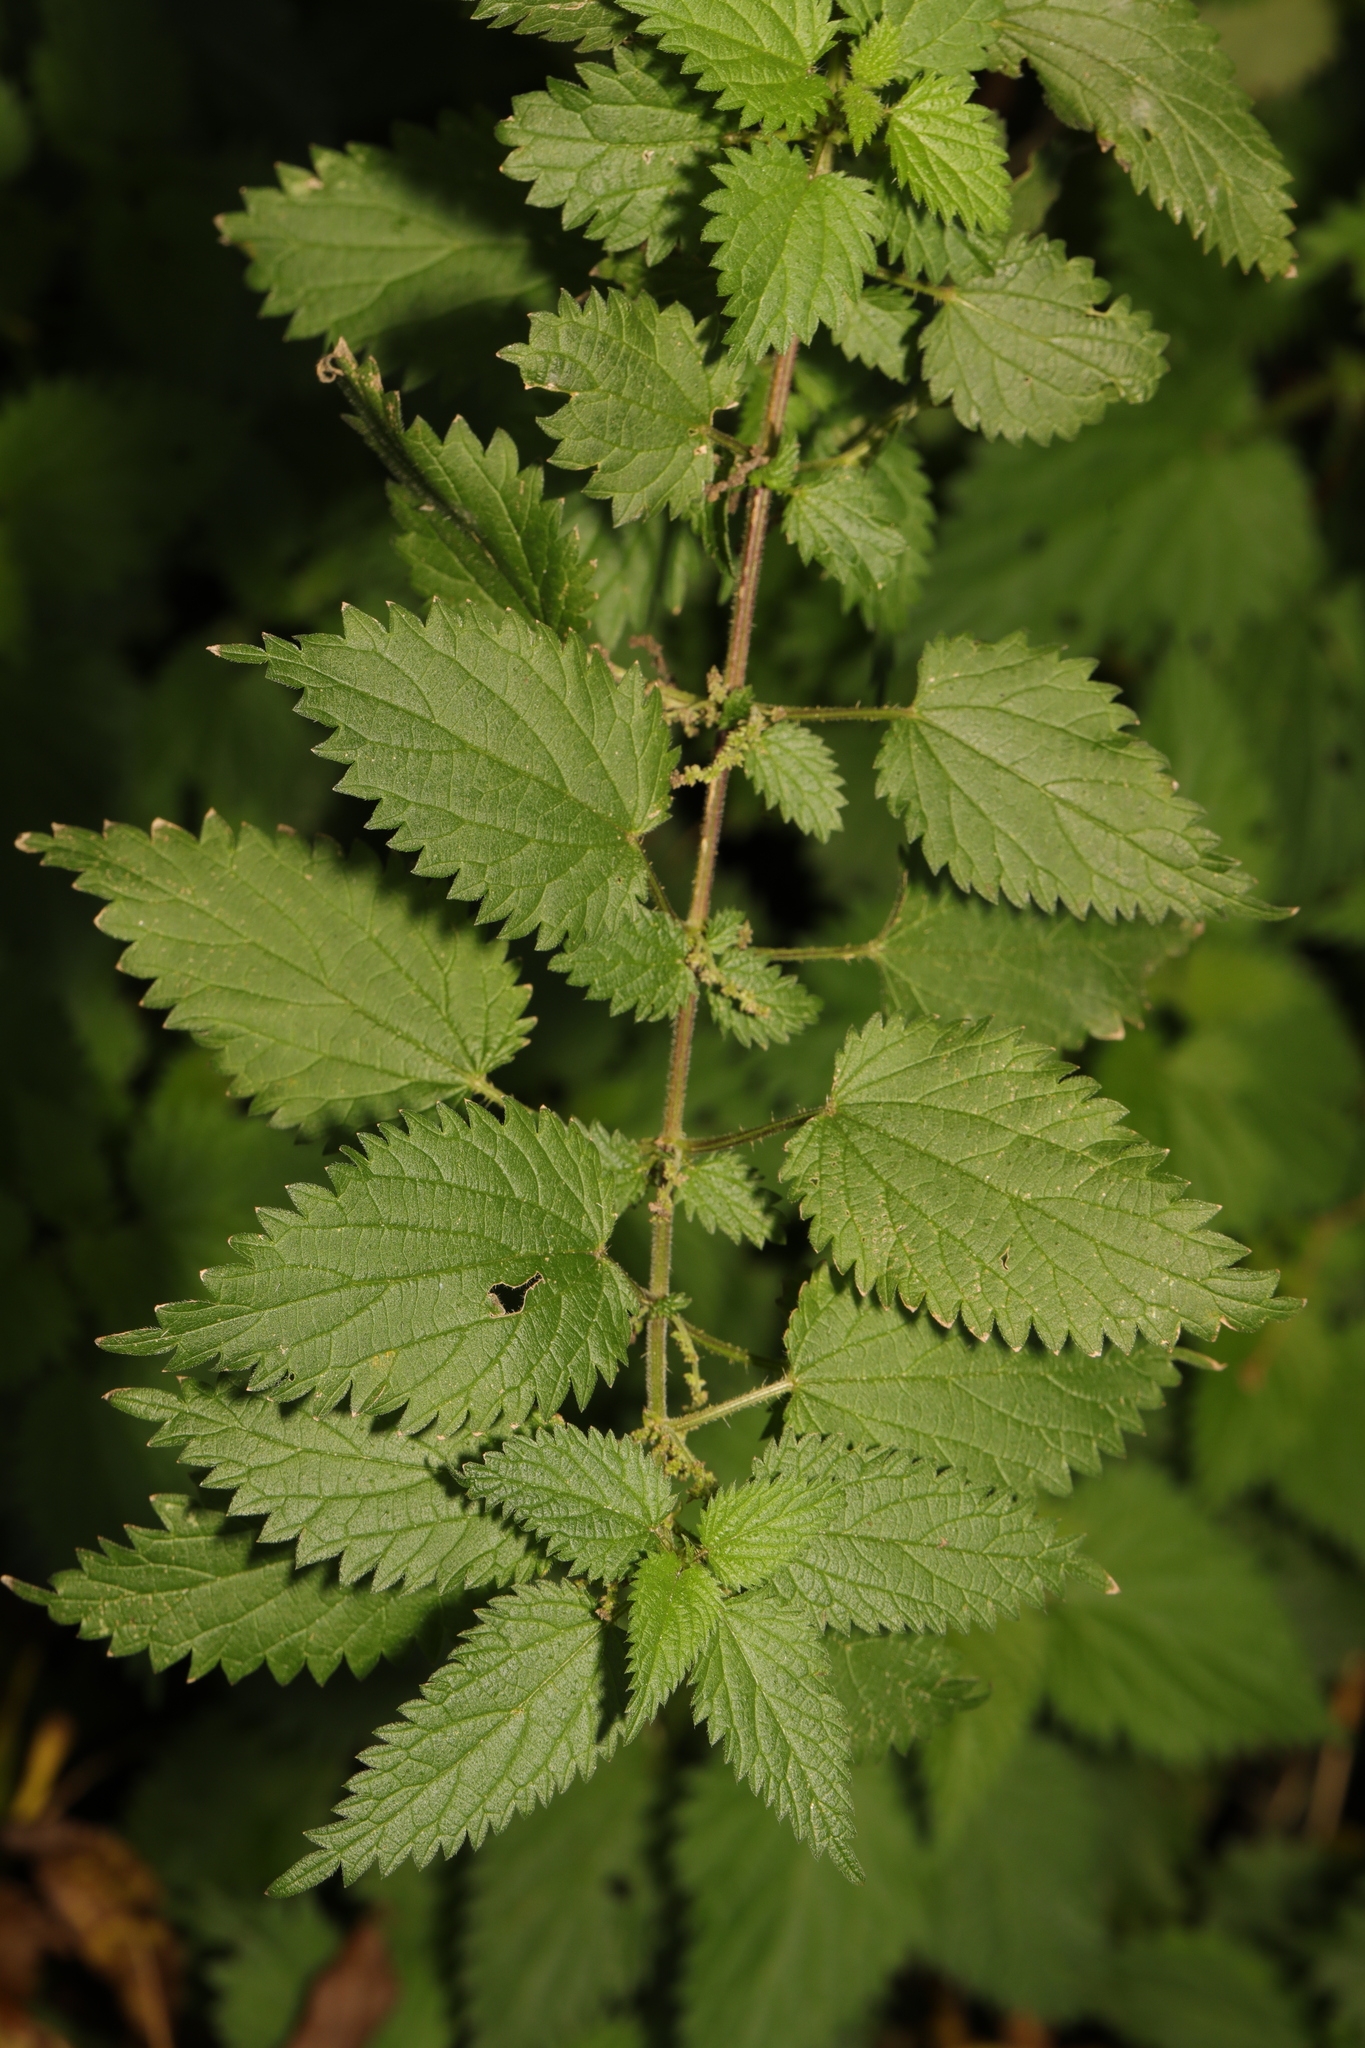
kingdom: Plantae
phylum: Tracheophyta
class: Magnoliopsida
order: Rosales
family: Urticaceae
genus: Urtica
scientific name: Urtica dioica
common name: Common nettle
